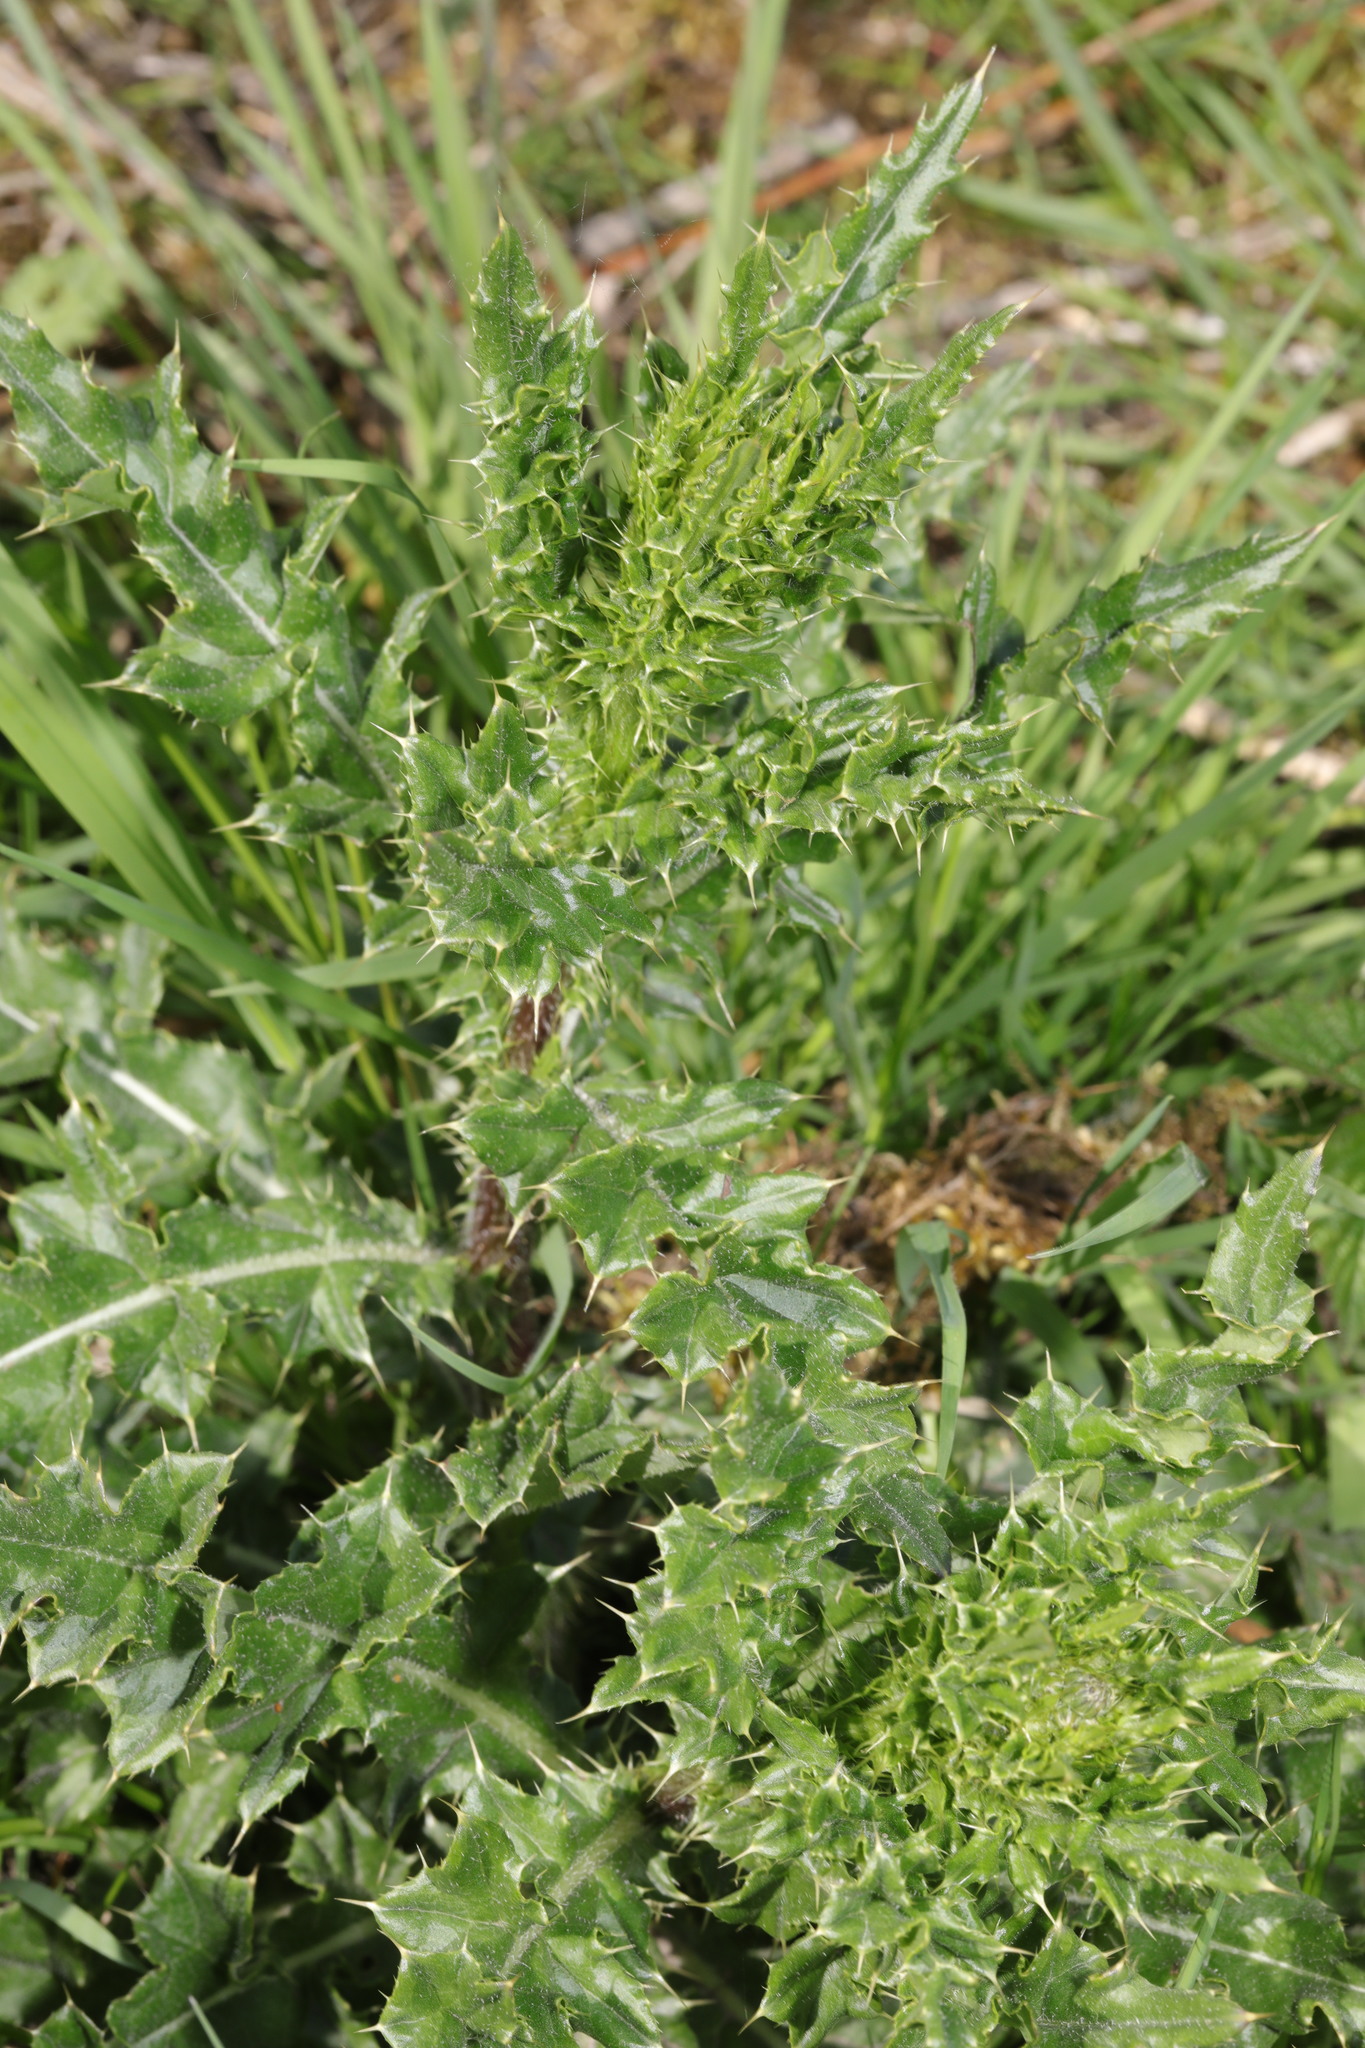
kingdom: Plantae
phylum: Tracheophyta
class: Magnoliopsida
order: Asterales
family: Asteraceae
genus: Cirsium
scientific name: Cirsium arvense
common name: Creeping thistle
